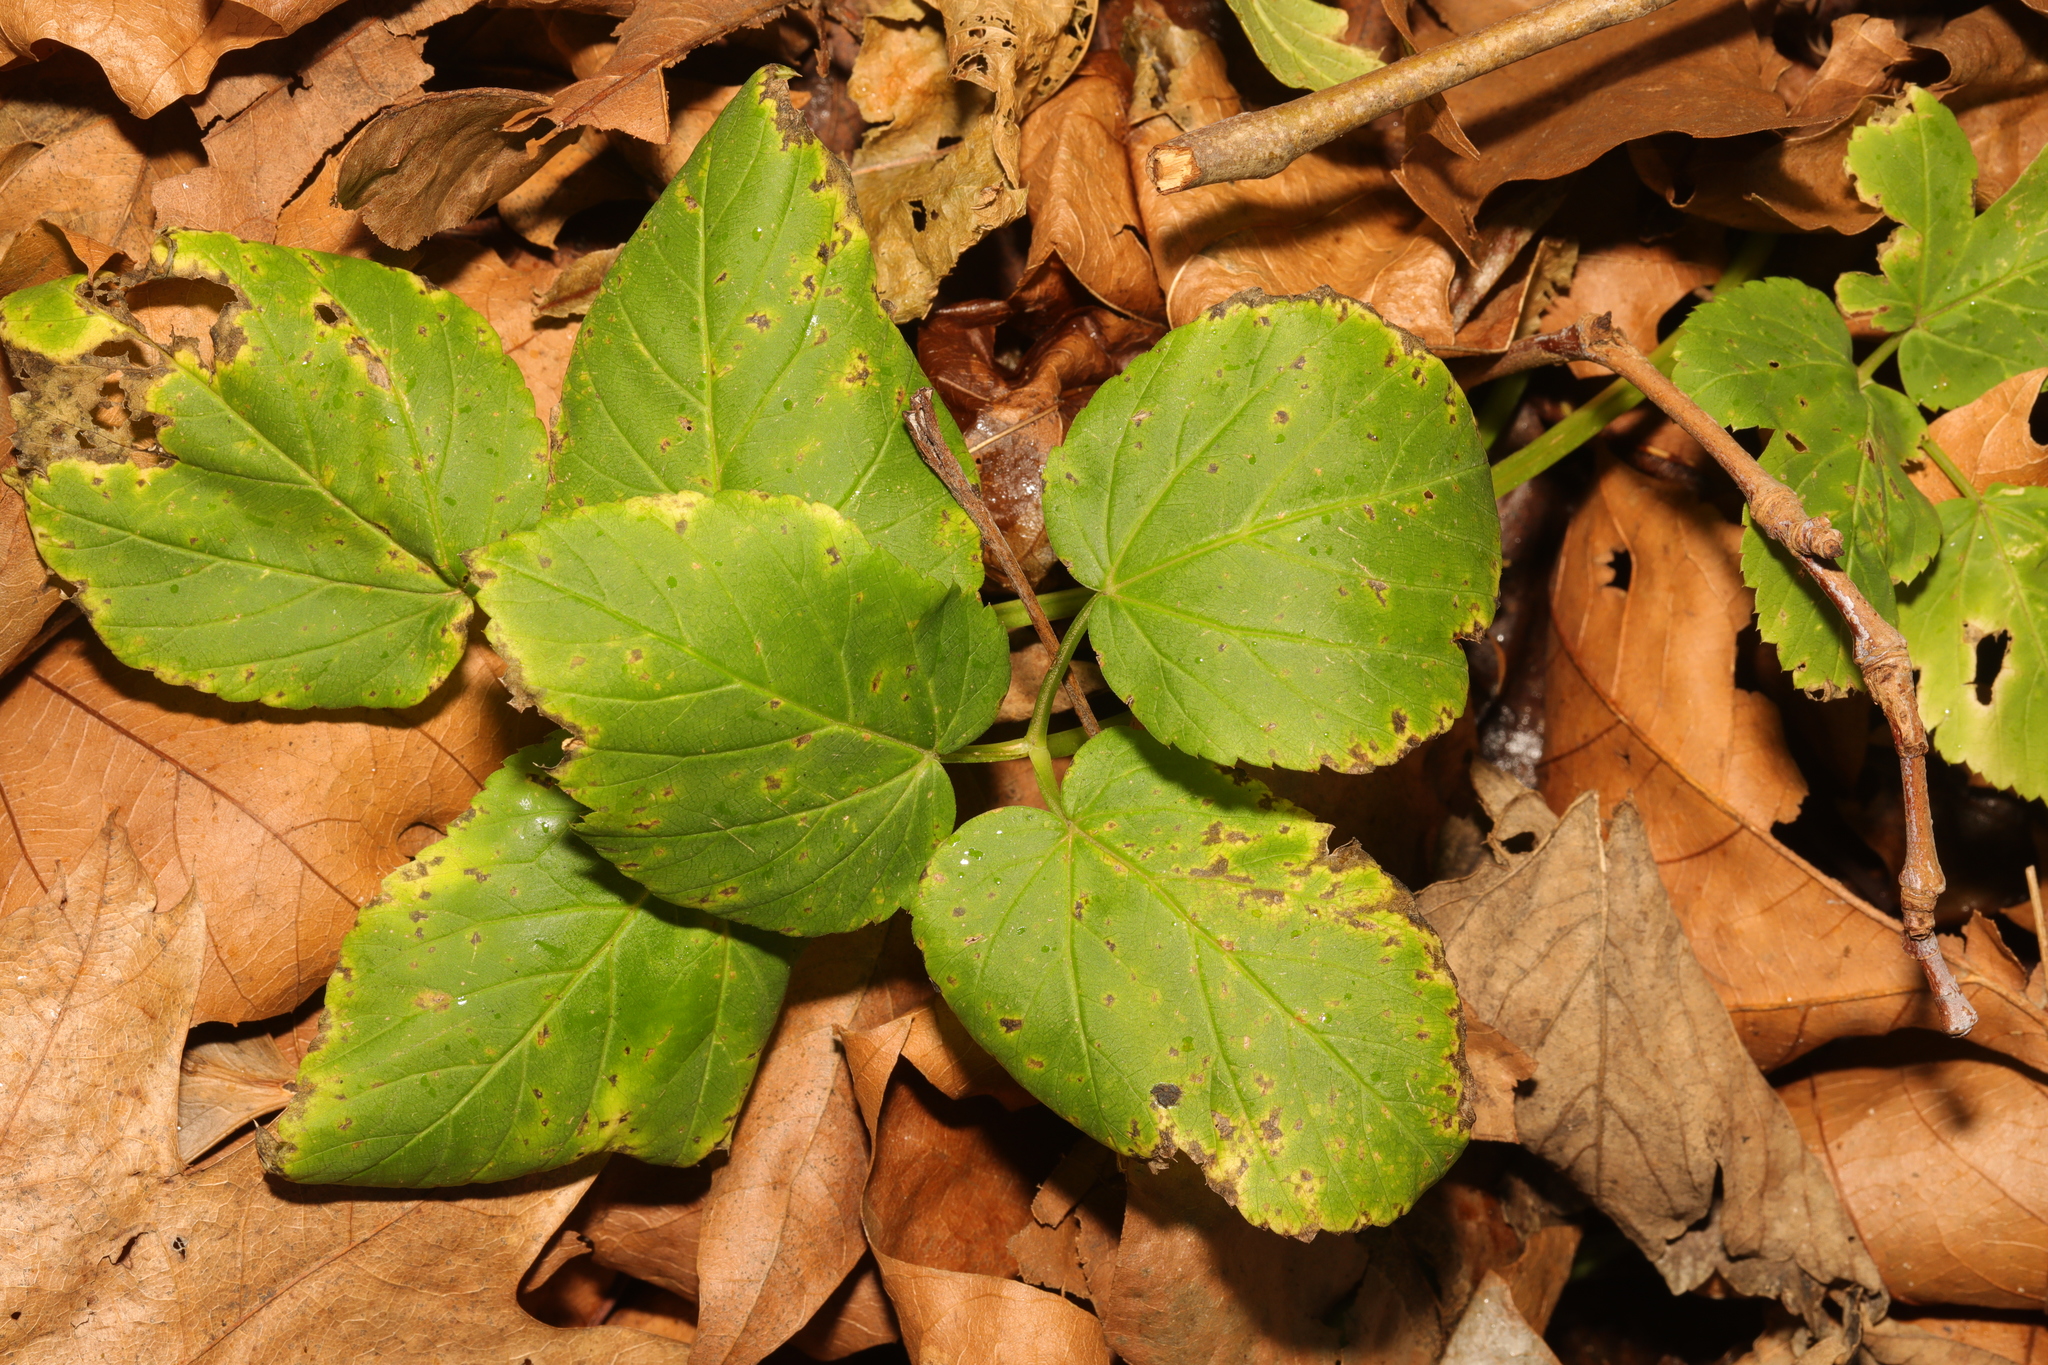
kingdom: Plantae
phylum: Tracheophyta
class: Magnoliopsida
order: Apiales
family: Apiaceae
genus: Aegopodium
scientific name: Aegopodium podagraria
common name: Ground-elder
